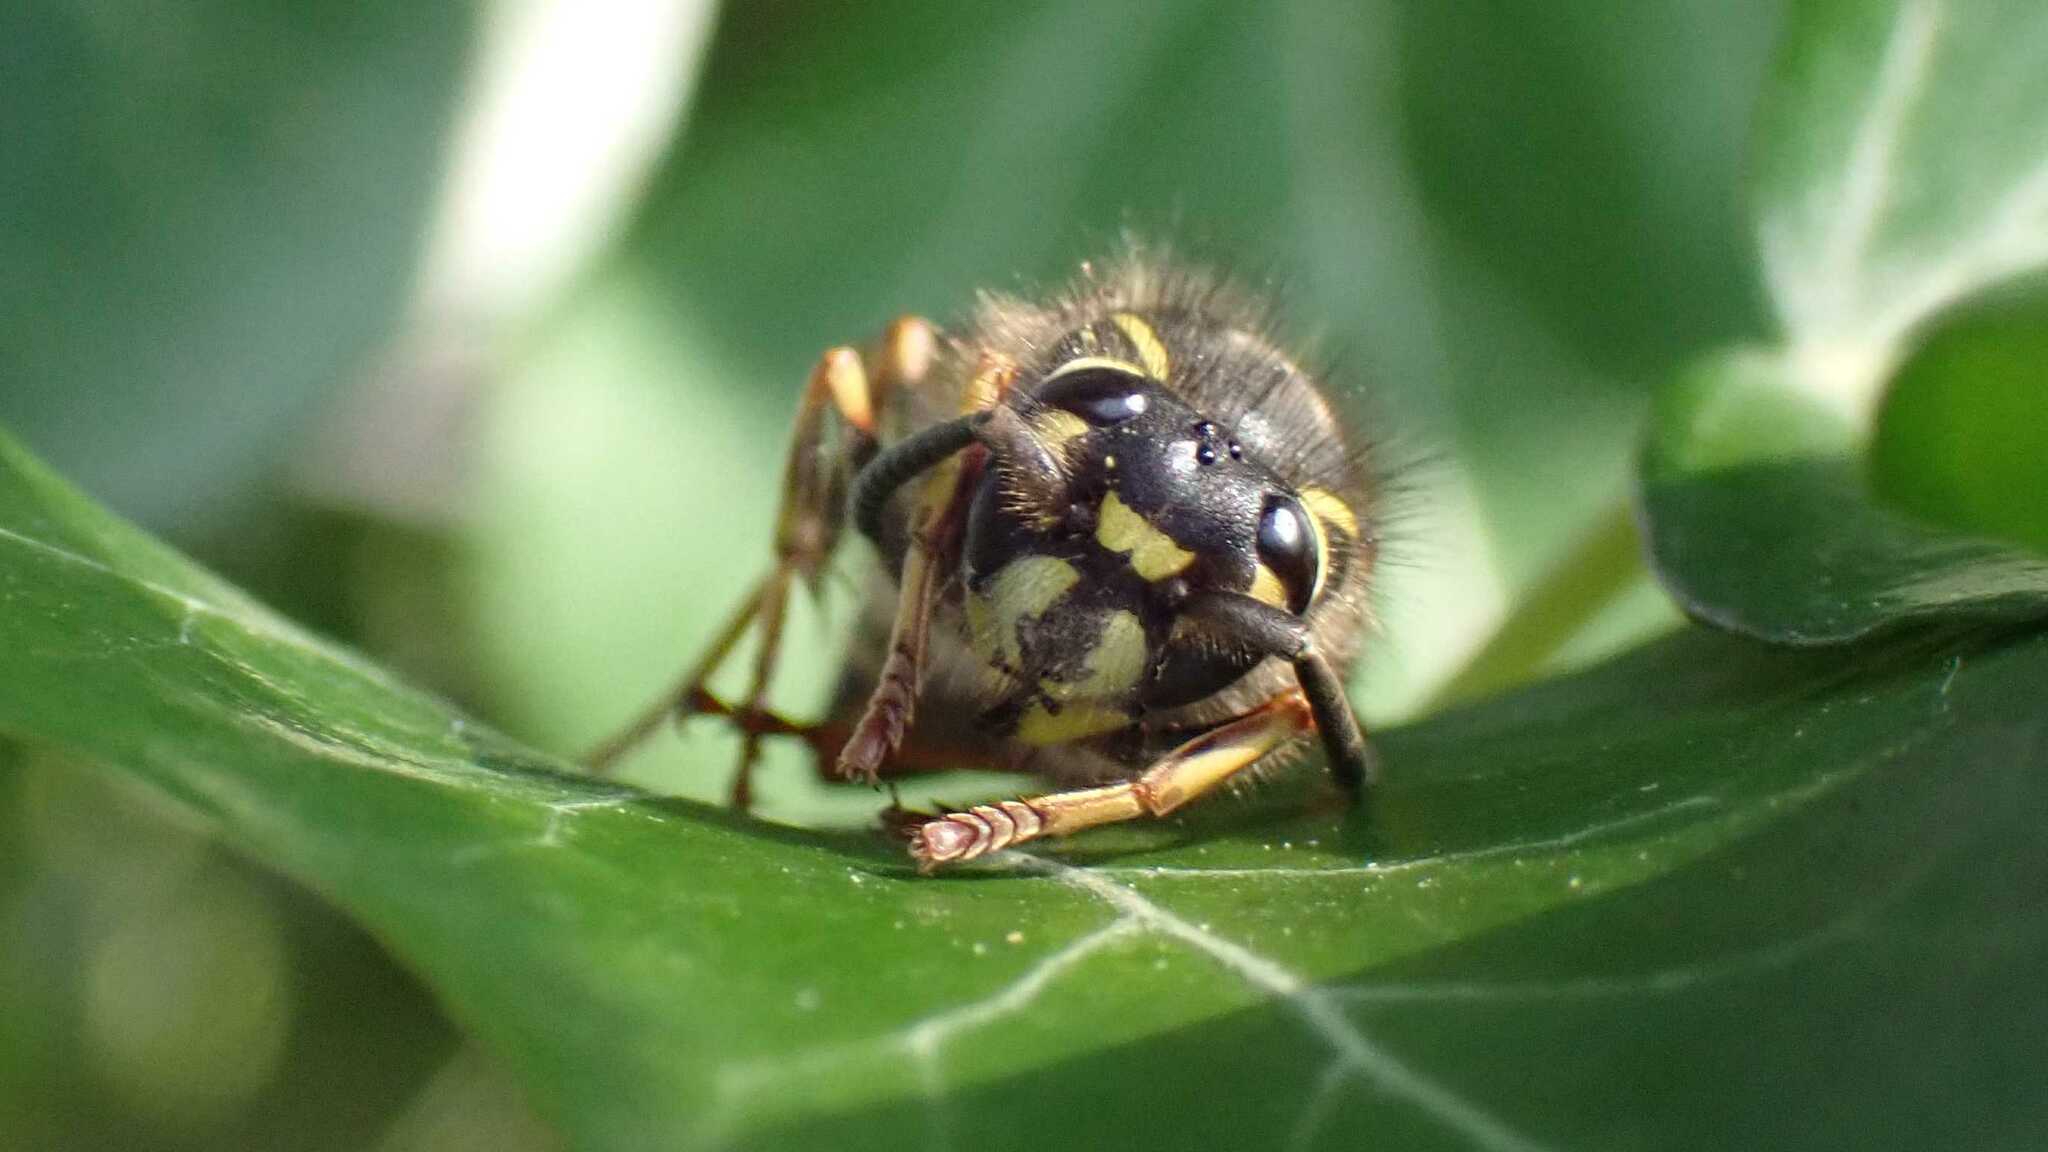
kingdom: Animalia
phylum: Arthropoda
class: Insecta
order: Hymenoptera
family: Vespidae
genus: Vespula
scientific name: Vespula vulgaris
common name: Common wasp
